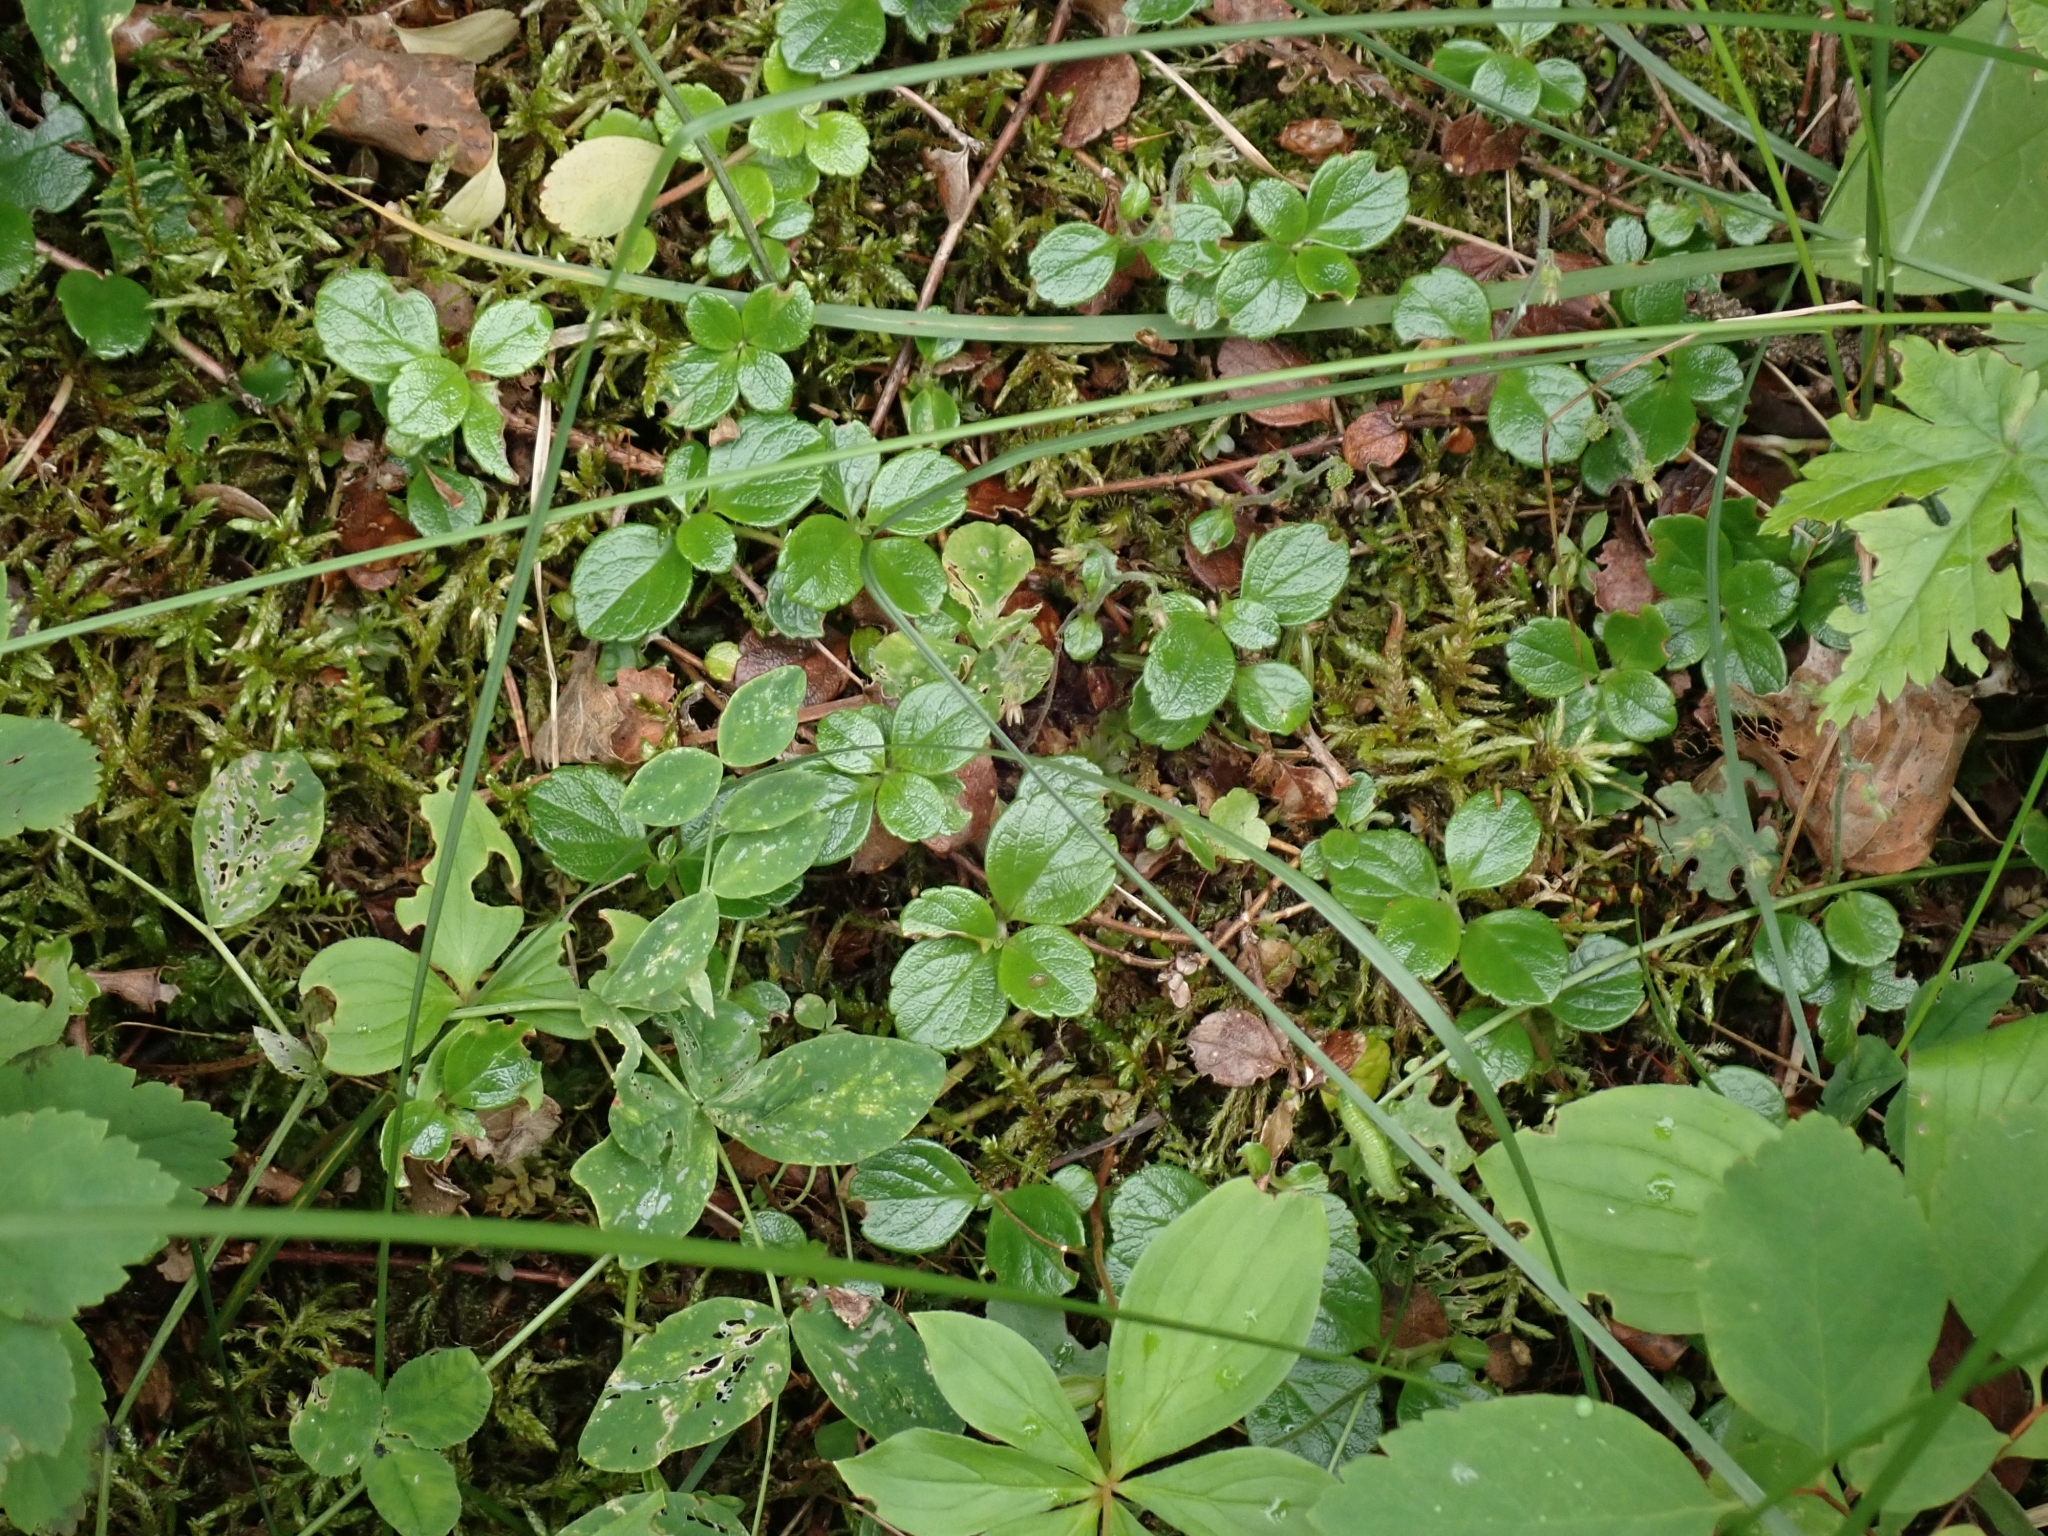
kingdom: Plantae
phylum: Tracheophyta
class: Magnoliopsida
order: Dipsacales
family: Caprifoliaceae
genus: Linnaea
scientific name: Linnaea borealis
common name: Twinflower
